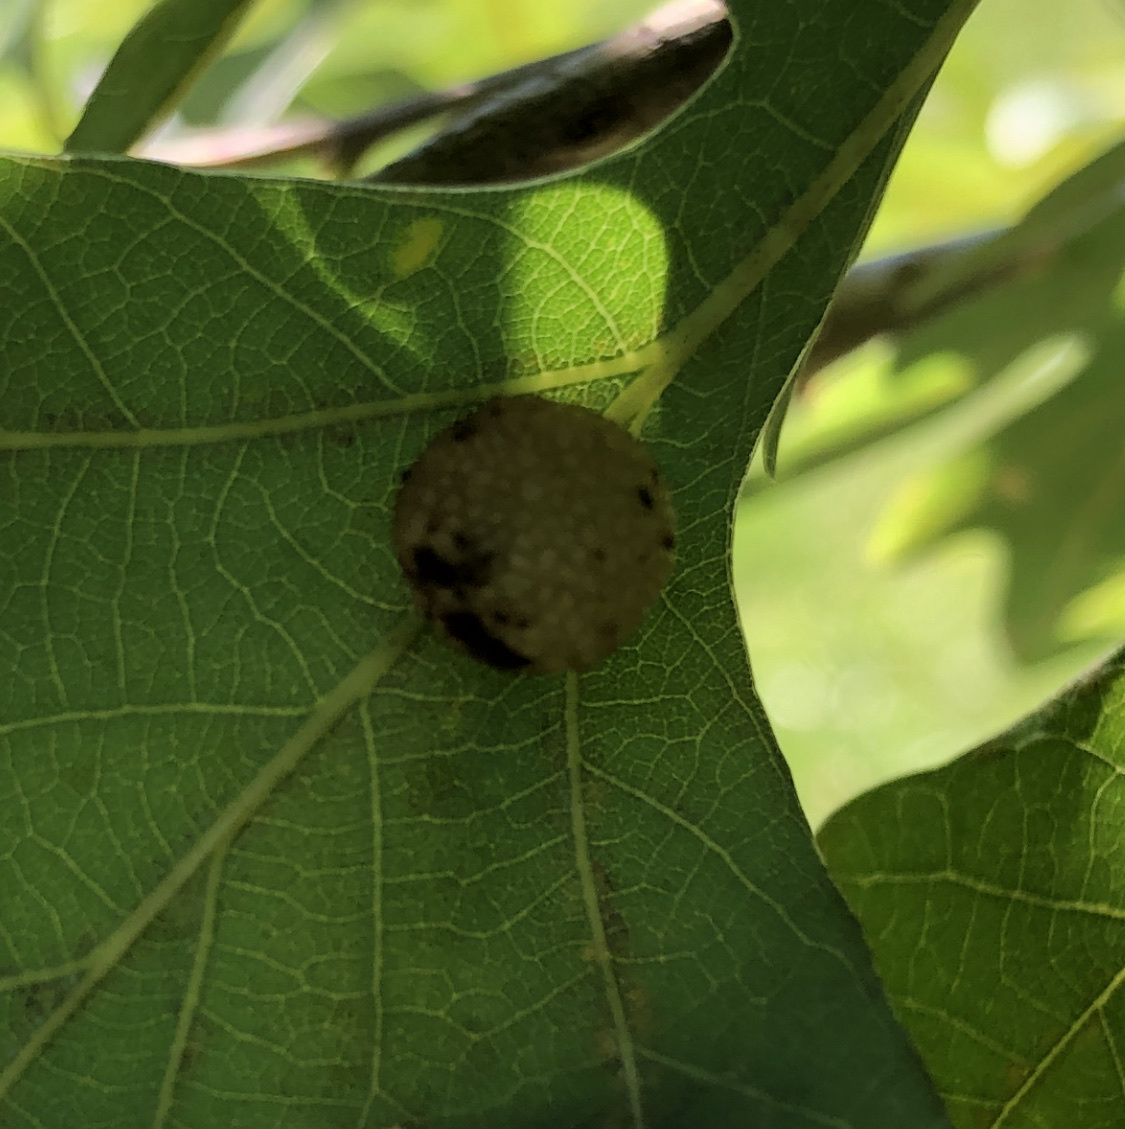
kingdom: Animalia
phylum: Arthropoda
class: Insecta
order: Hymenoptera
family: Cynipidae
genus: Acraspis
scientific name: Acraspis
